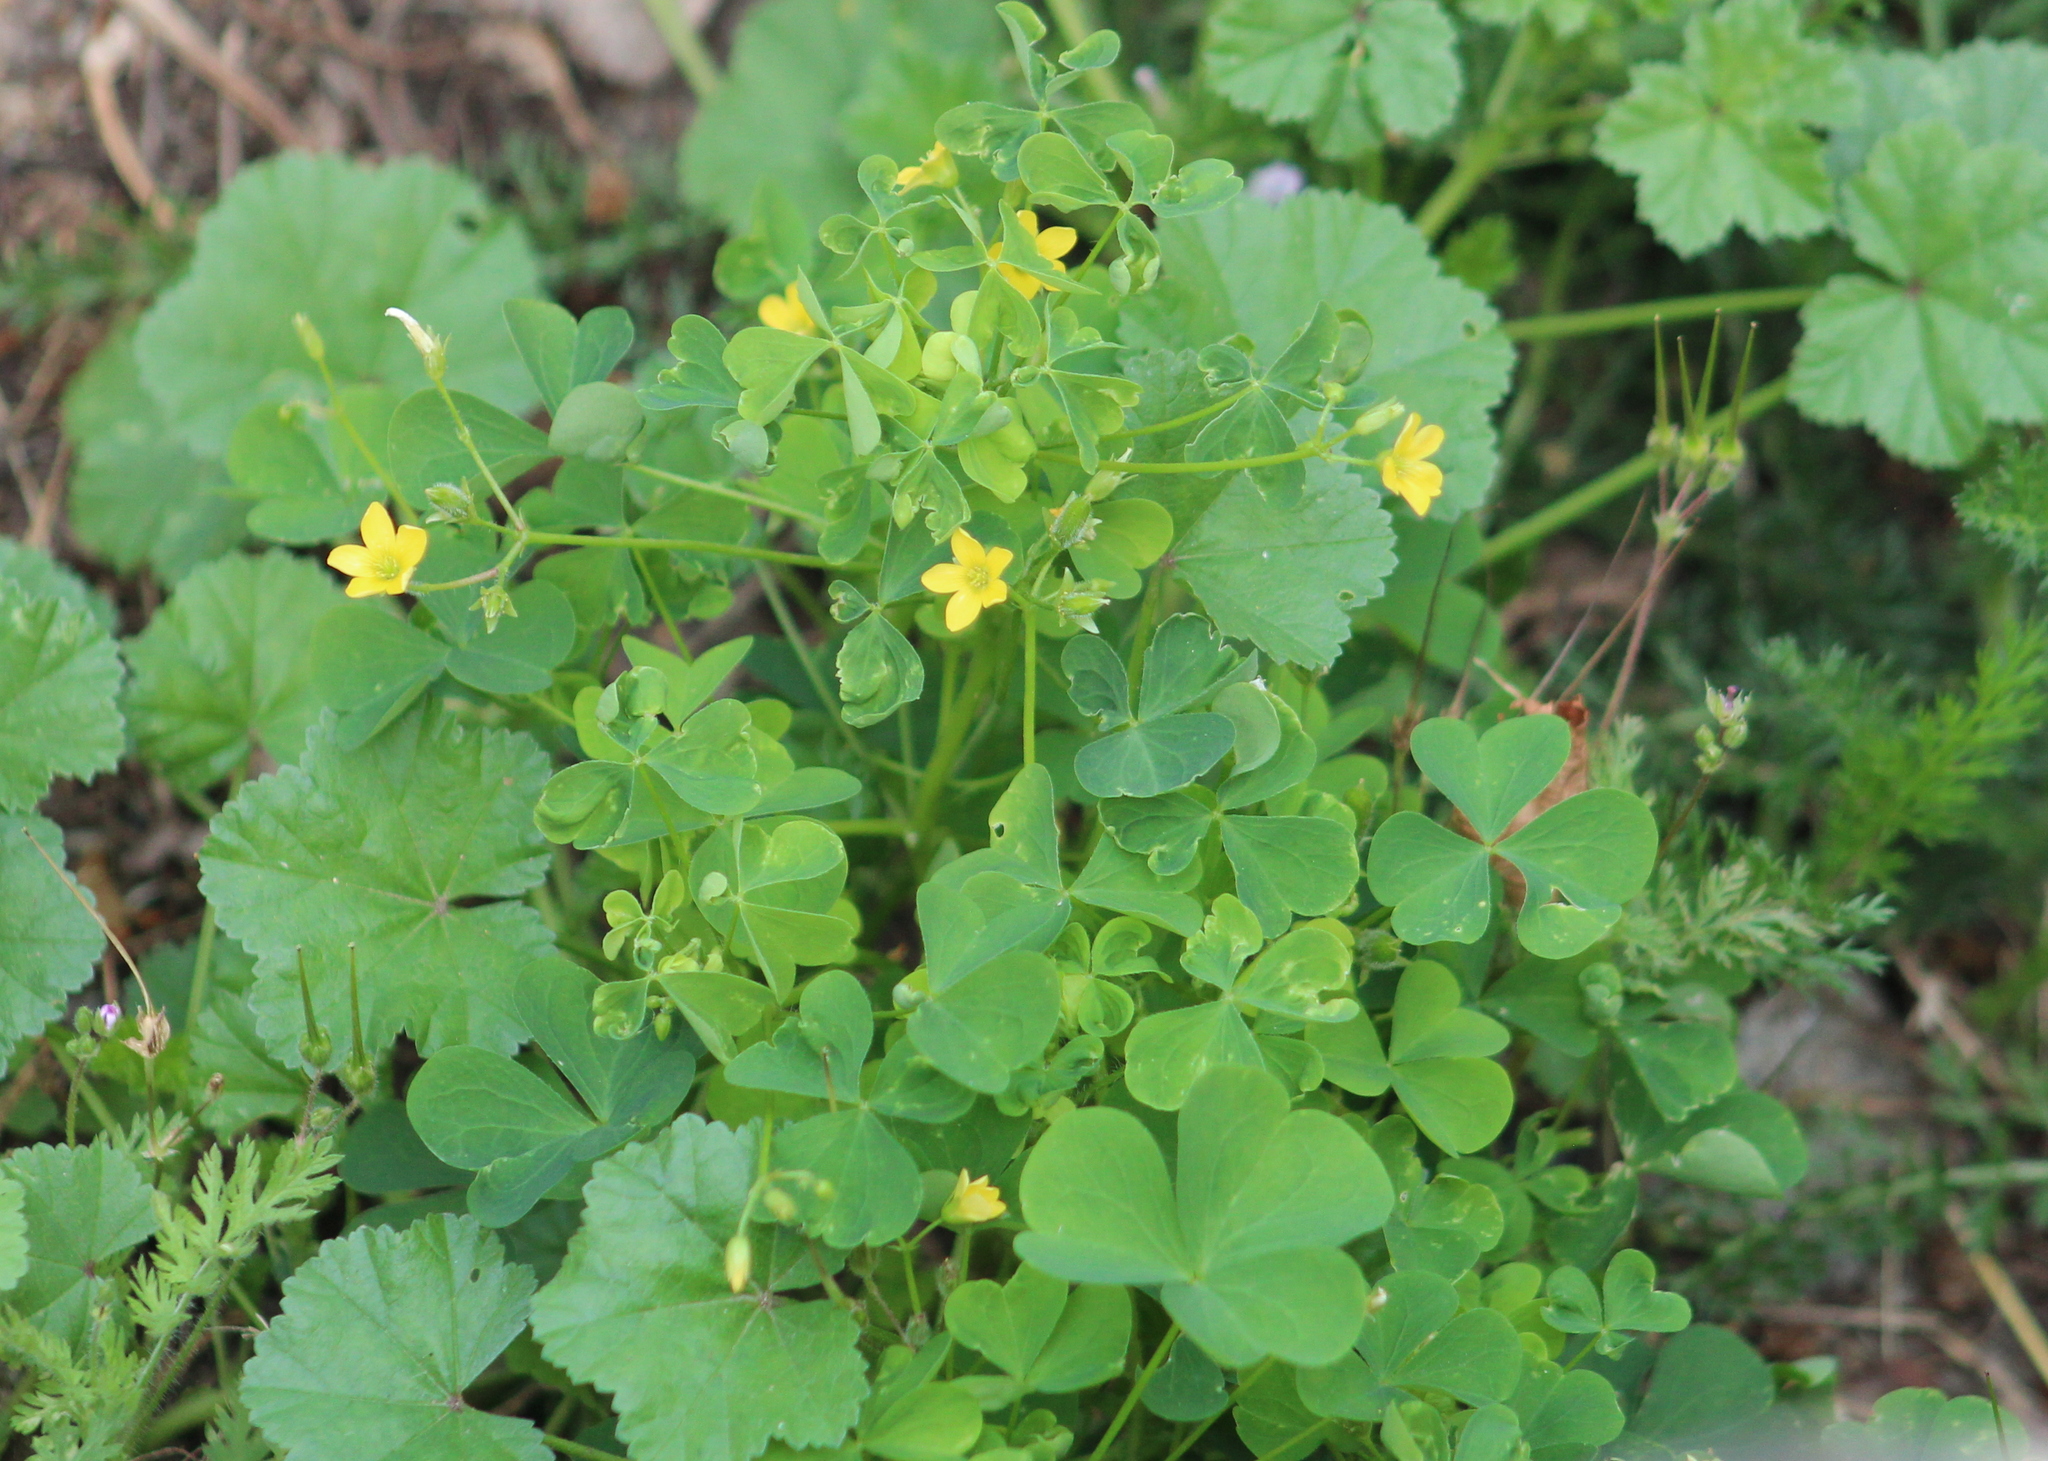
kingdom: Plantae
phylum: Tracheophyta
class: Magnoliopsida
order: Oxalidales
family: Oxalidaceae
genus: Oxalis
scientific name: Oxalis stricta
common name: Upright yellow-sorrel
